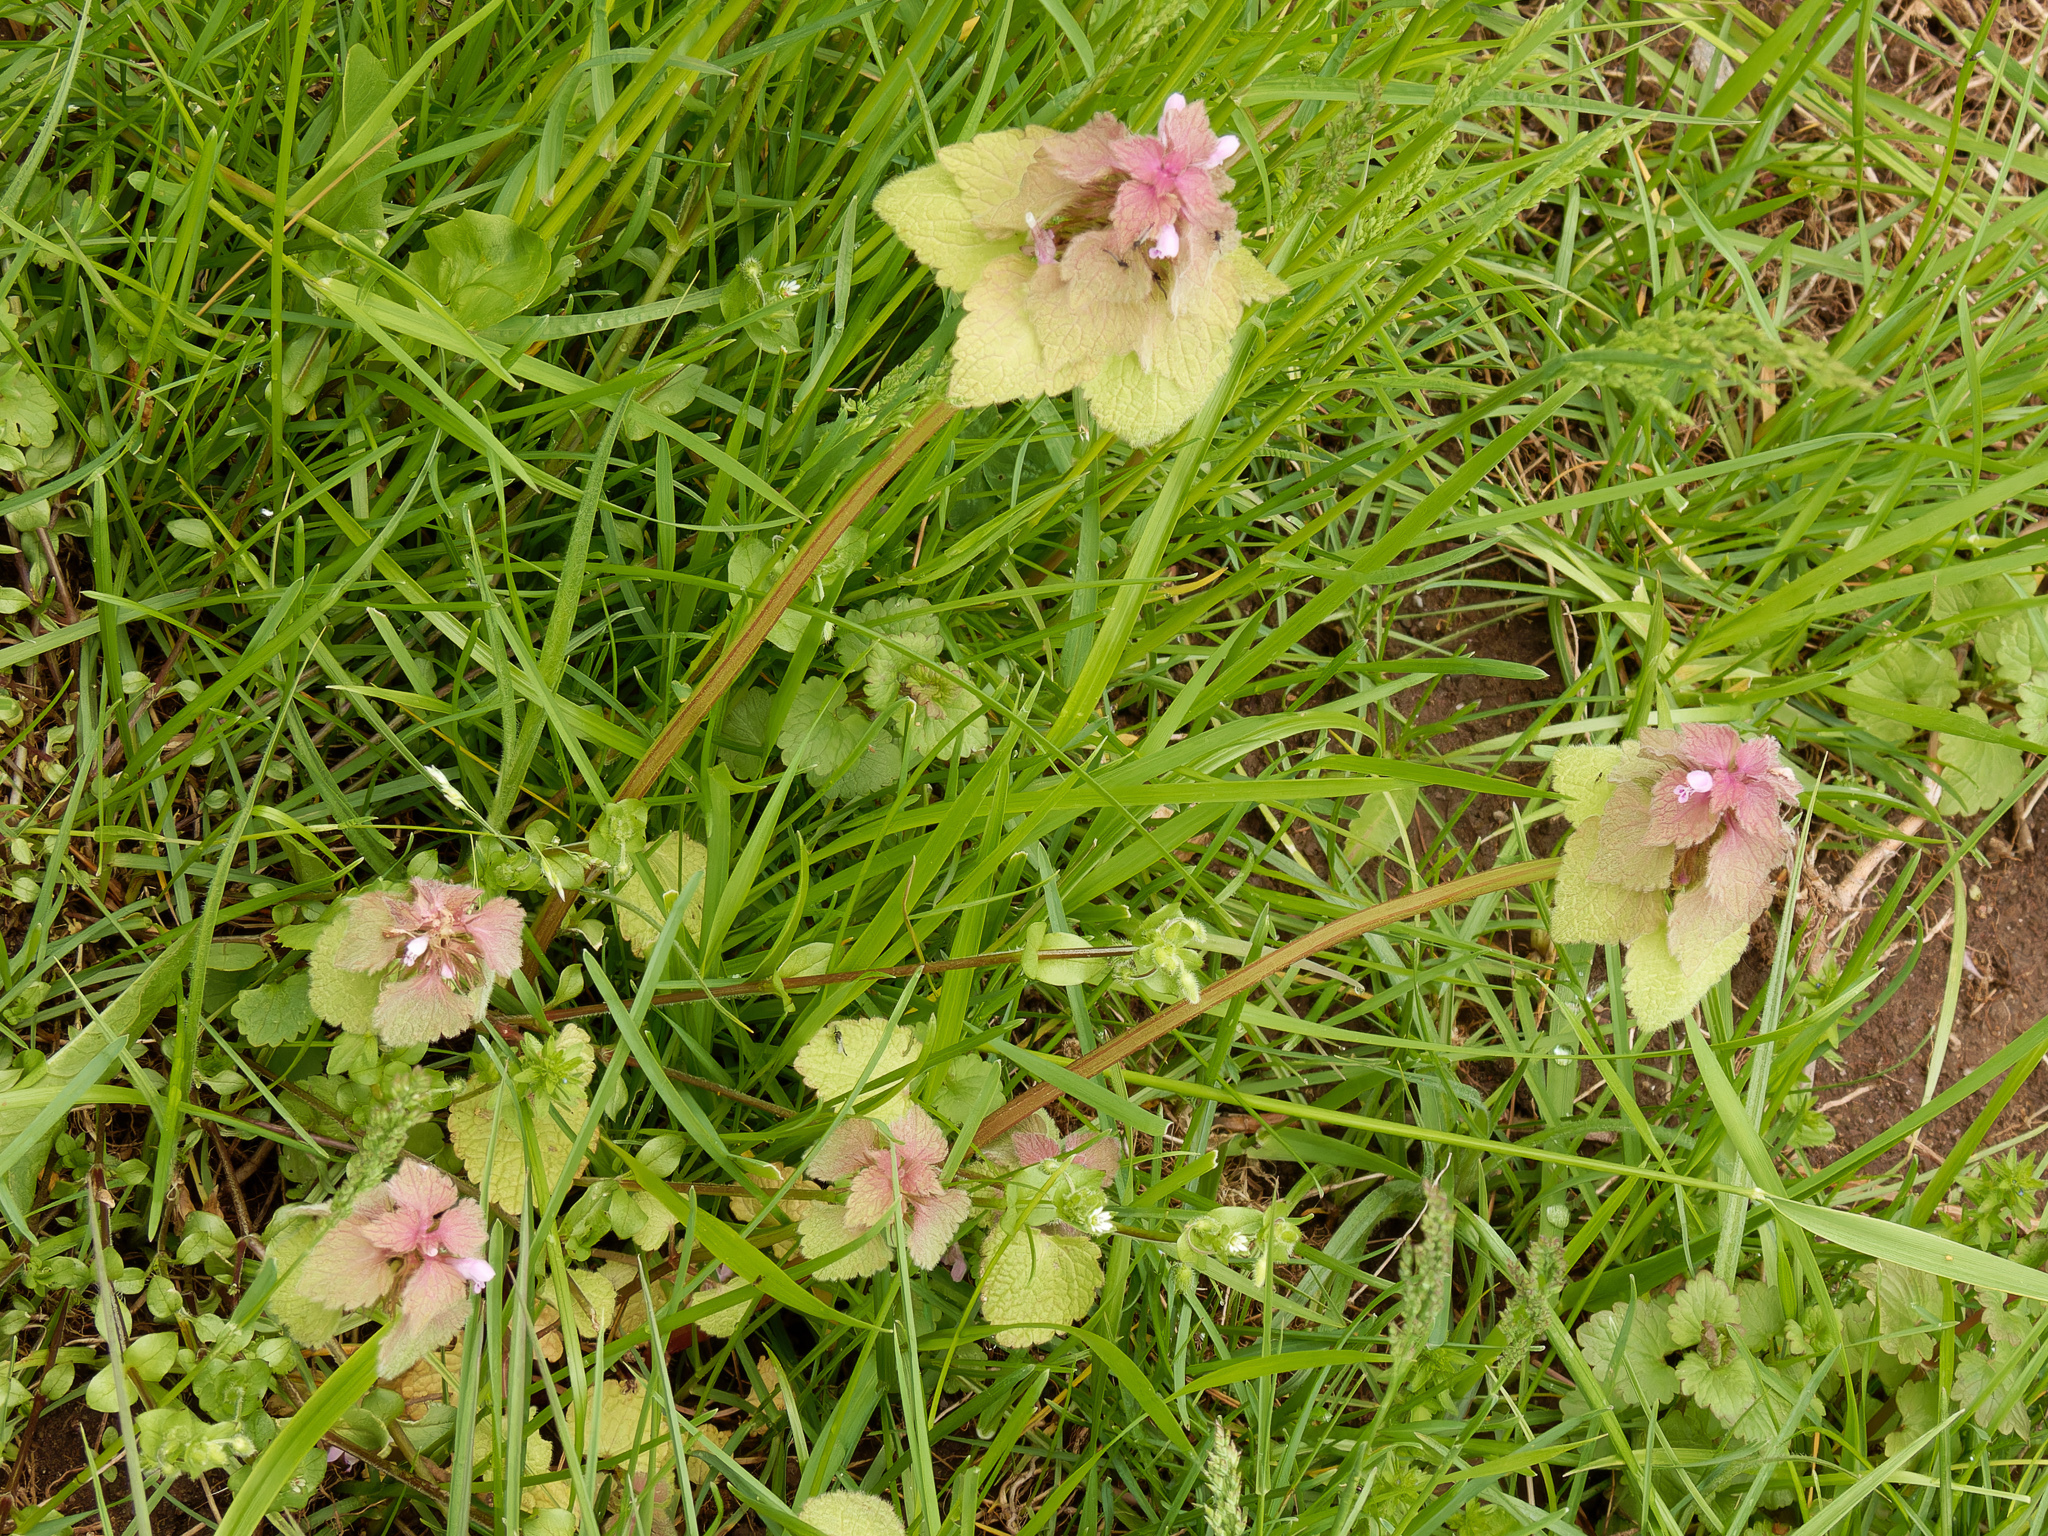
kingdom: Plantae
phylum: Tracheophyta
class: Magnoliopsida
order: Lamiales
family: Lamiaceae
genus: Lamium
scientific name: Lamium purpureum
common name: Red dead-nettle
